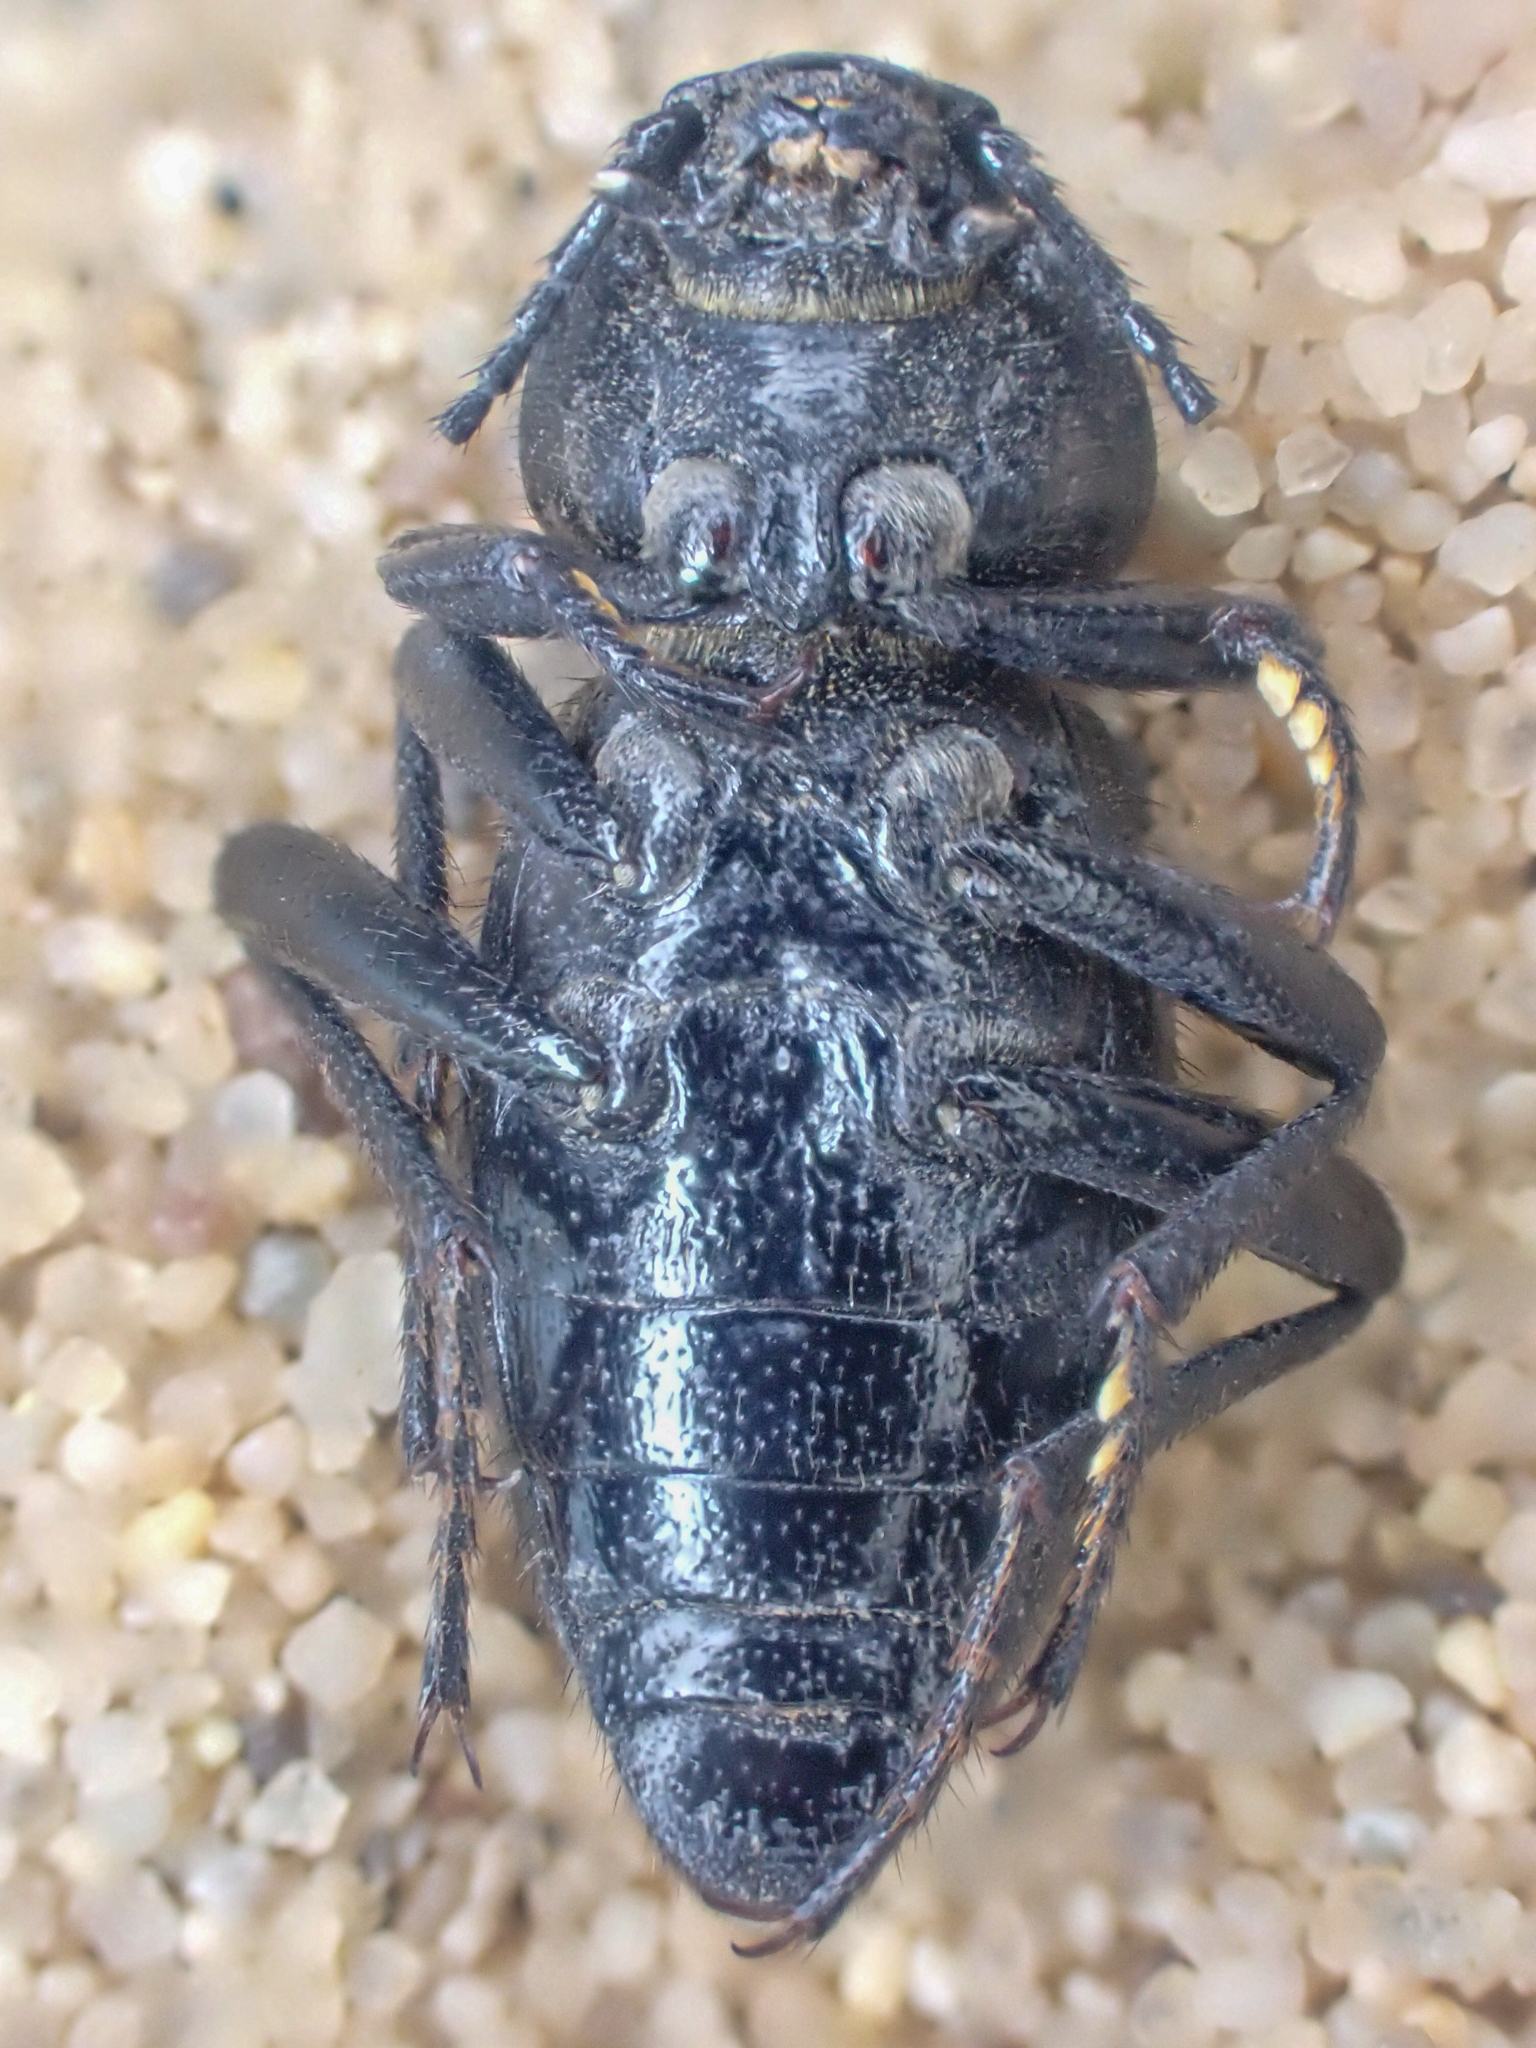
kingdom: Animalia
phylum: Arthropoda
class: Insecta
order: Coleoptera
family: Tenebrionidae
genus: Eleodes
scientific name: Eleodes clavicornis
